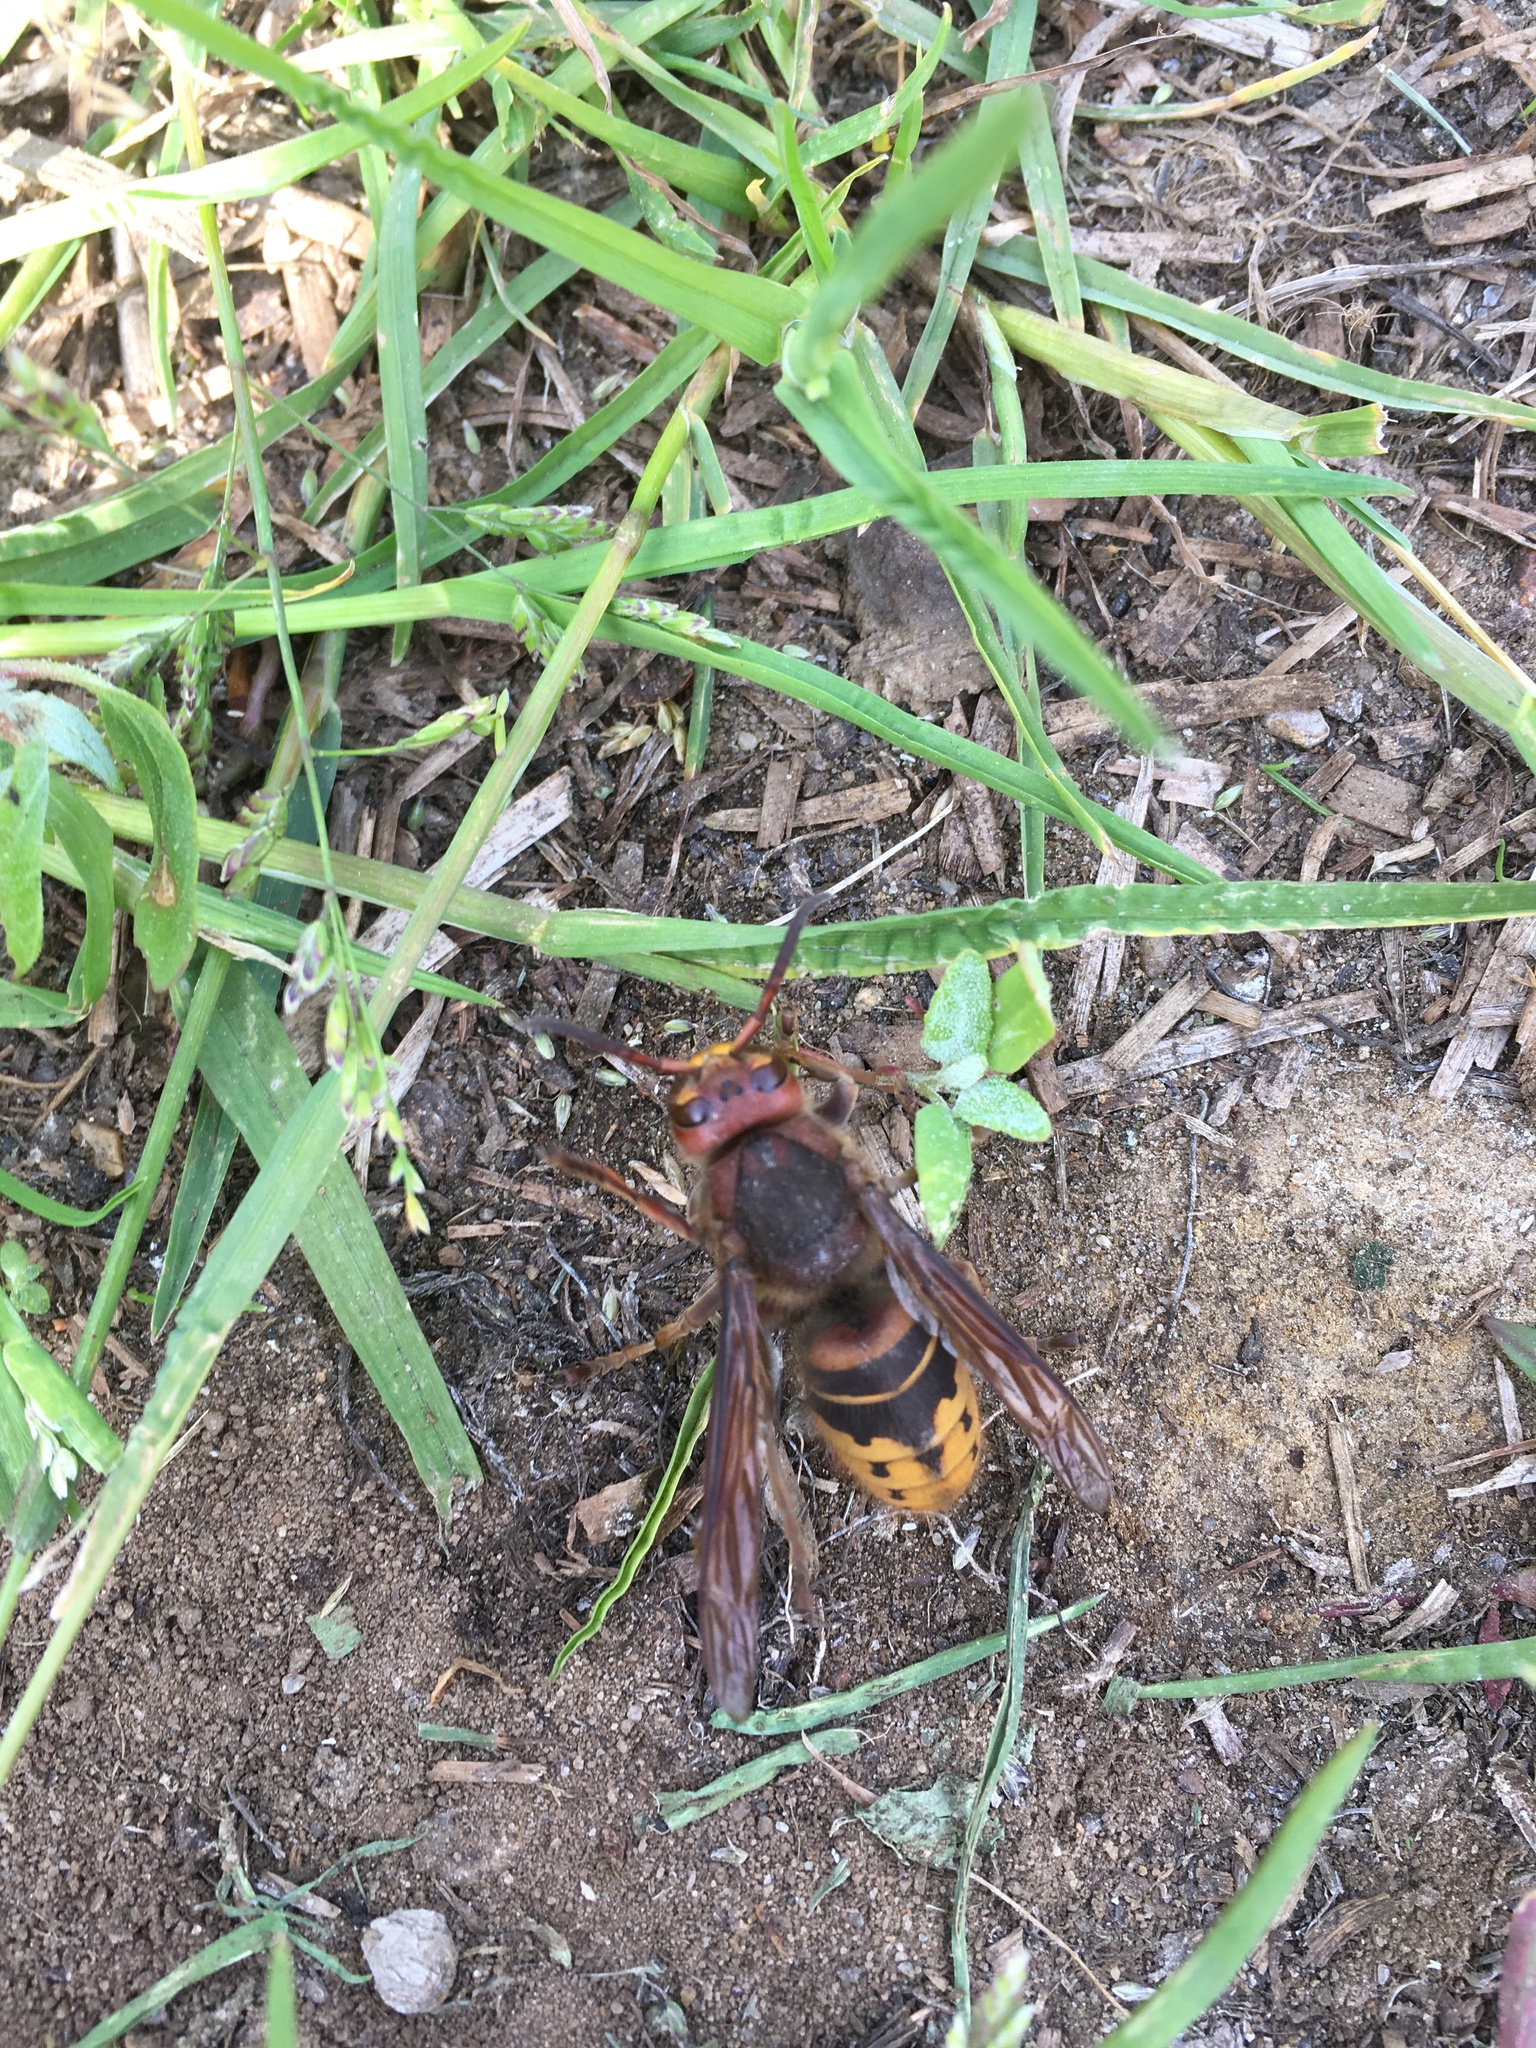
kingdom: Animalia
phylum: Arthropoda
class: Insecta
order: Hymenoptera
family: Vespidae
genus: Vespa
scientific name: Vespa crabro
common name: Hornet
